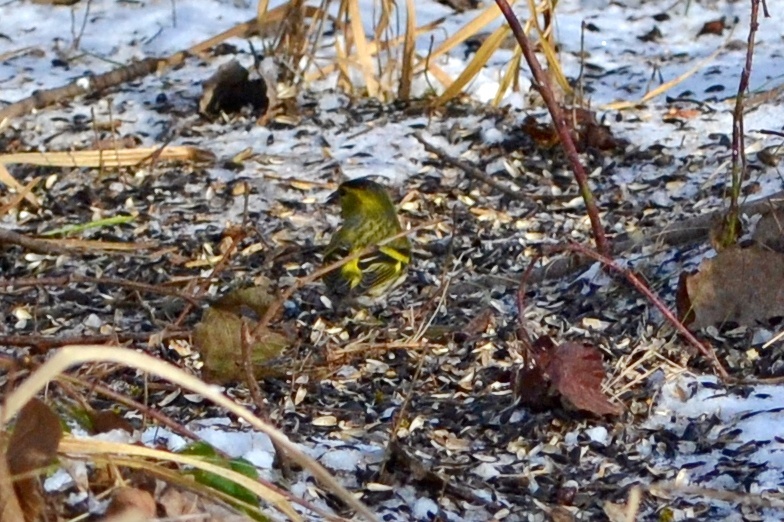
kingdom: Animalia
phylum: Chordata
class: Aves
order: Passeriformes
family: Fringillidae
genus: Spinus
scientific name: Spinus spinus
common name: Eurasian siskin
